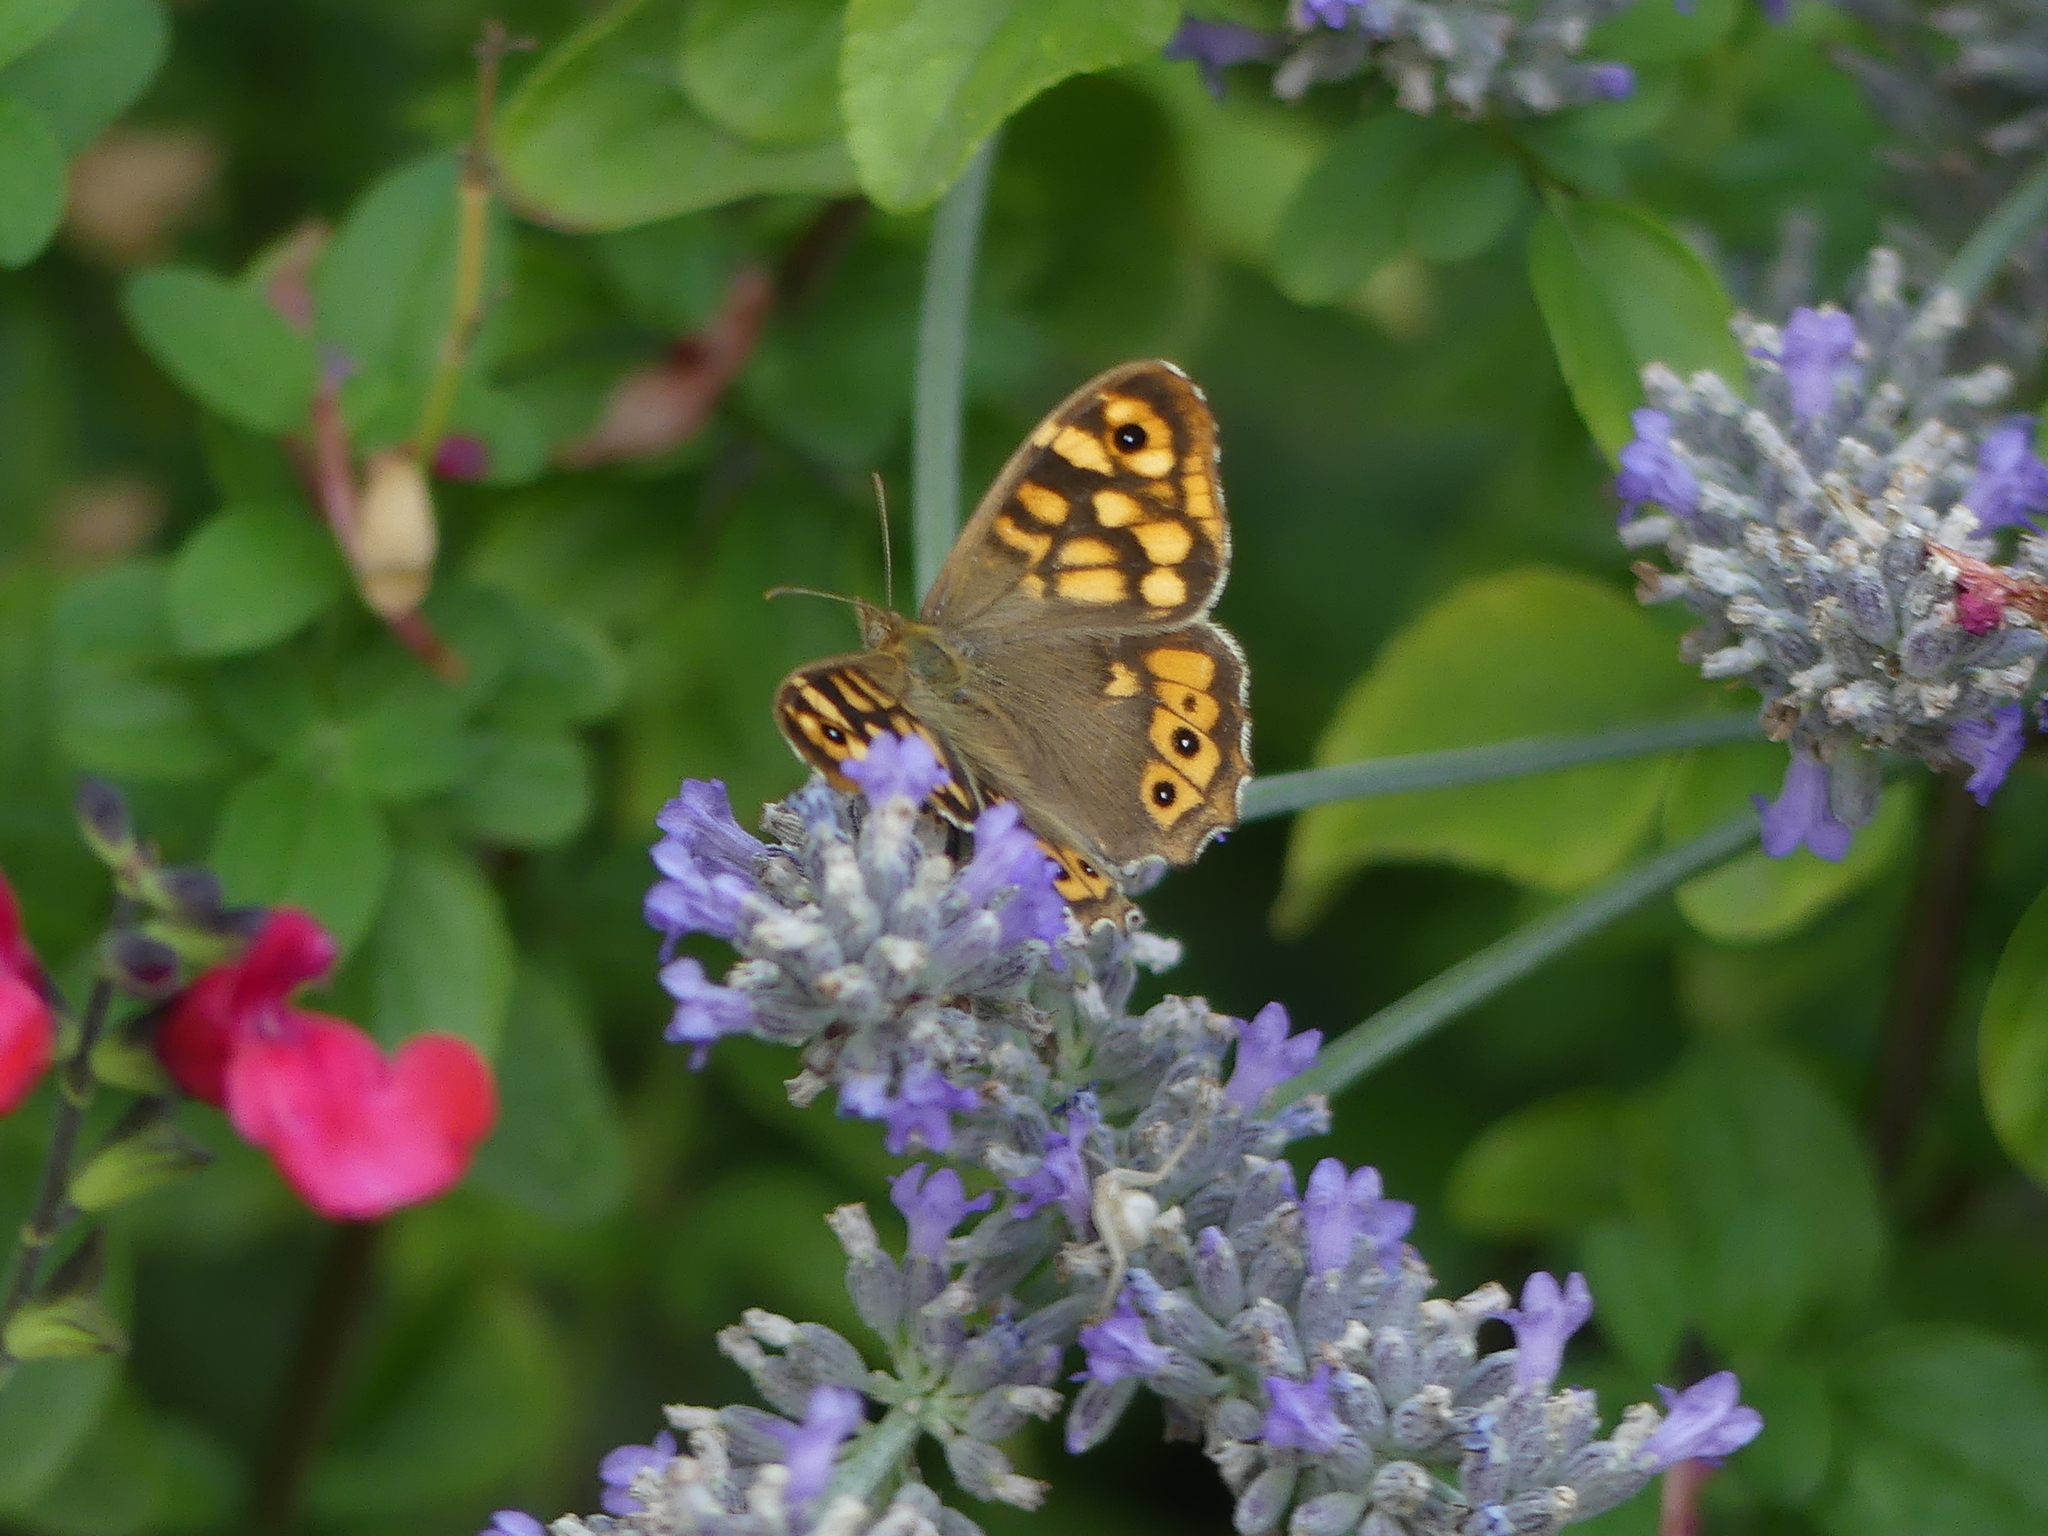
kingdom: Animalia
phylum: Arthropoda
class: Insecta
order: Lepidoptera
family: Nymphalidae
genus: Pararge
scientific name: Pararge aegeria
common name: Speckled wood
